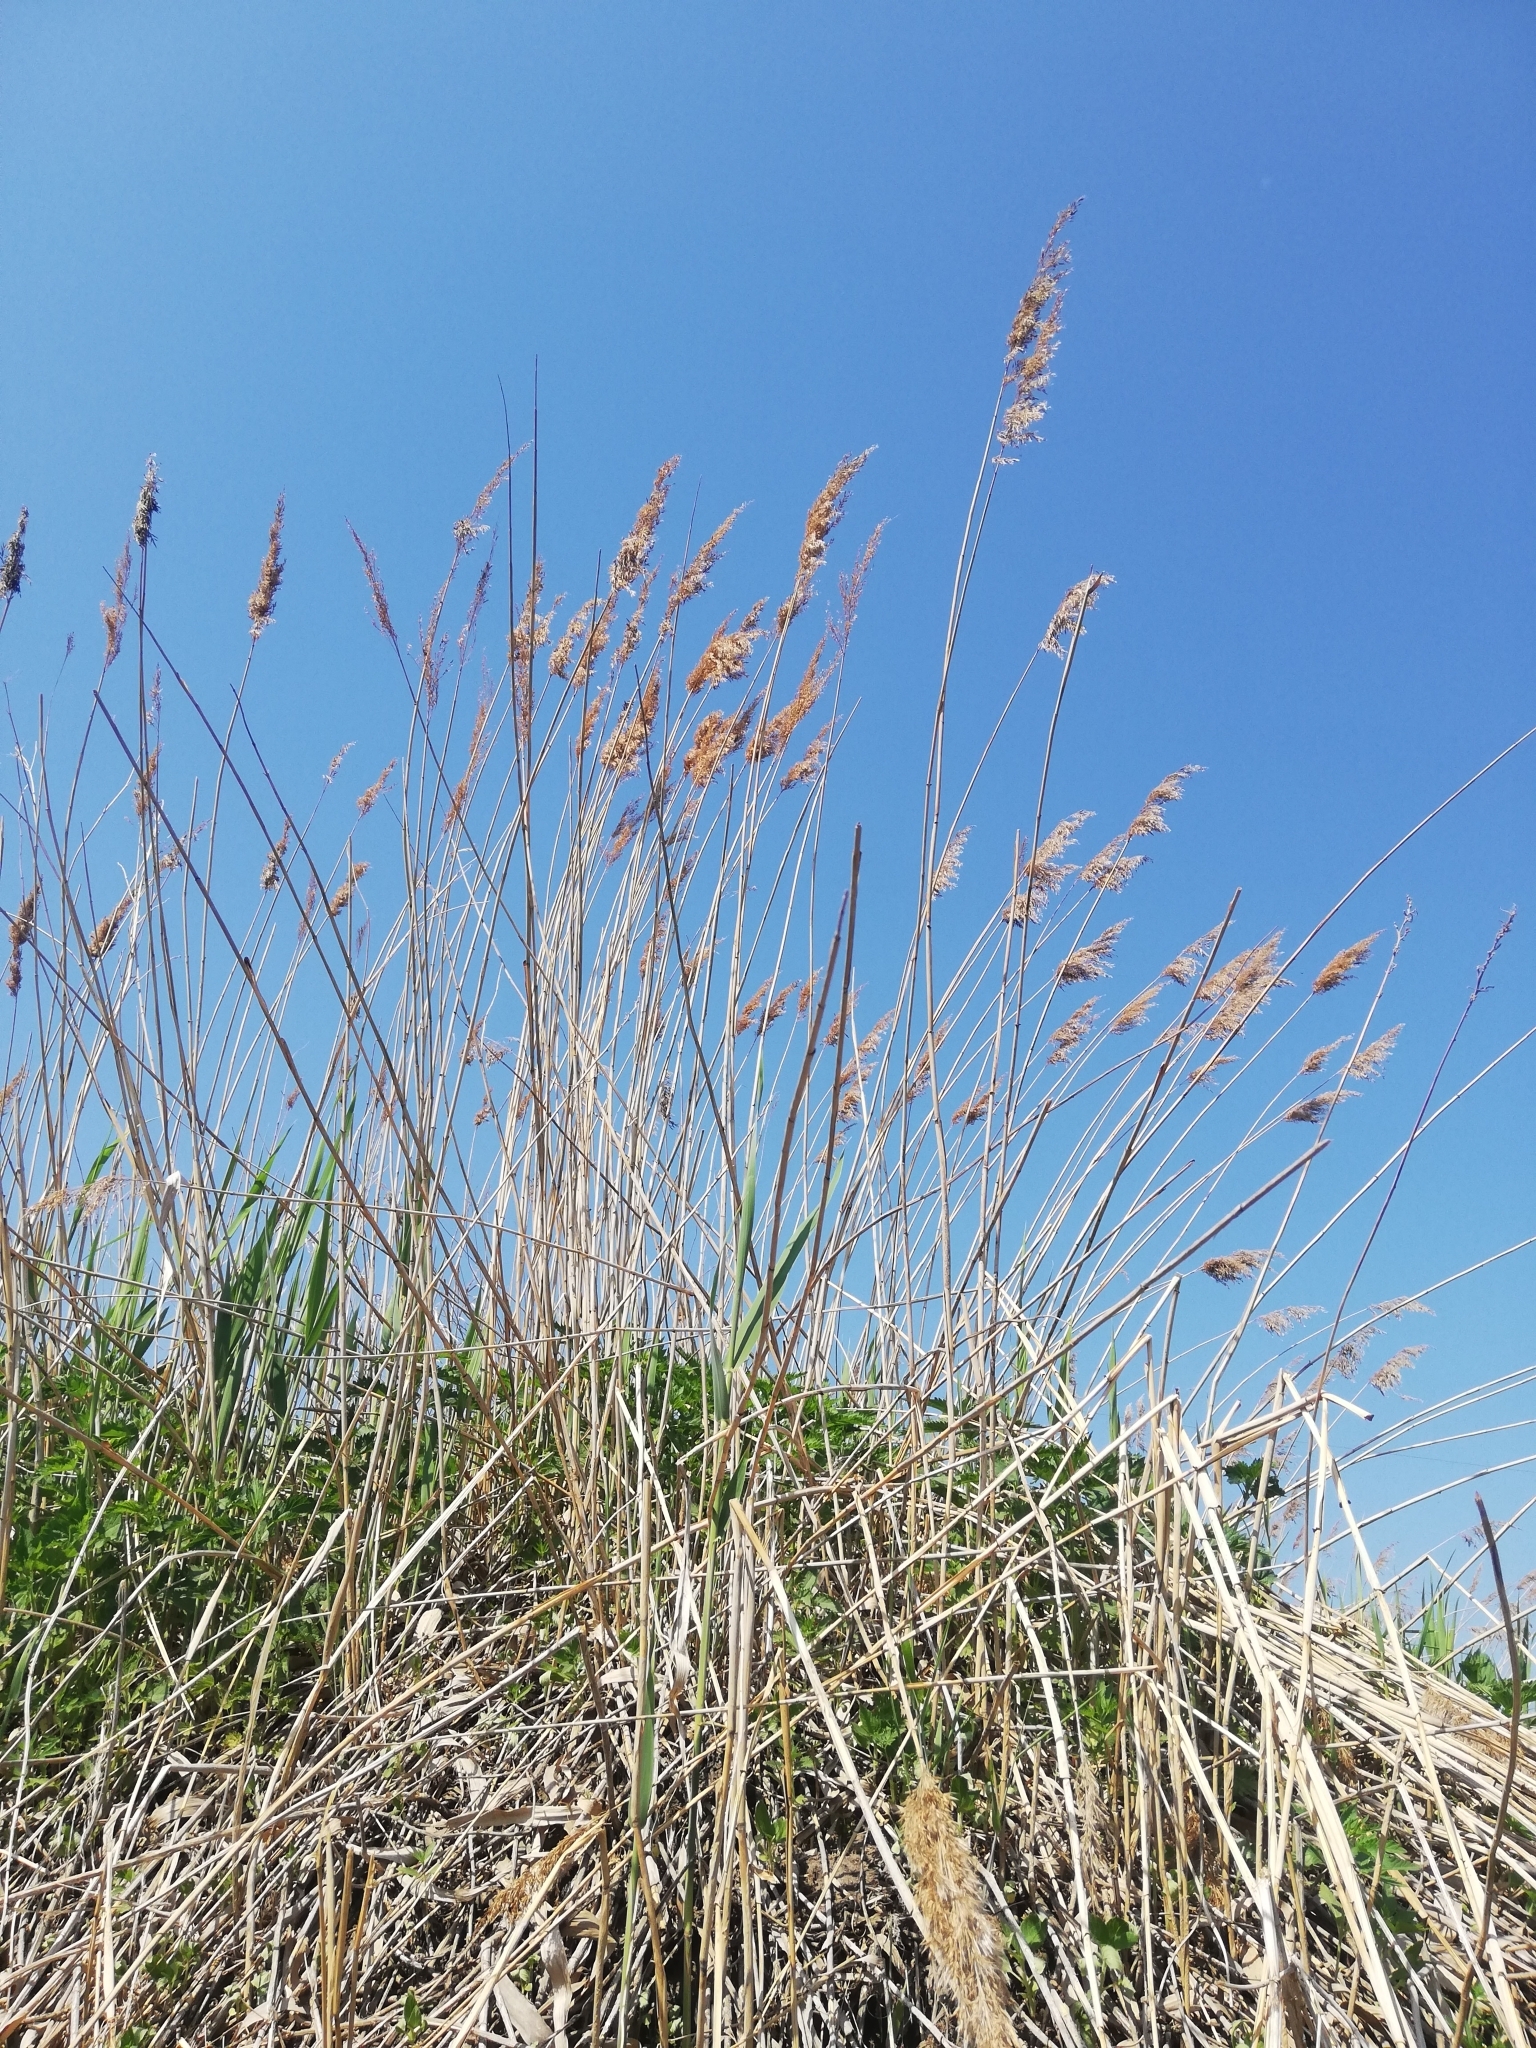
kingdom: Plantae
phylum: Tracheophyta
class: Liliopsida
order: Poales
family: Poaceae
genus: Phragmites
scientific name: Phragmites australis
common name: Common reed
